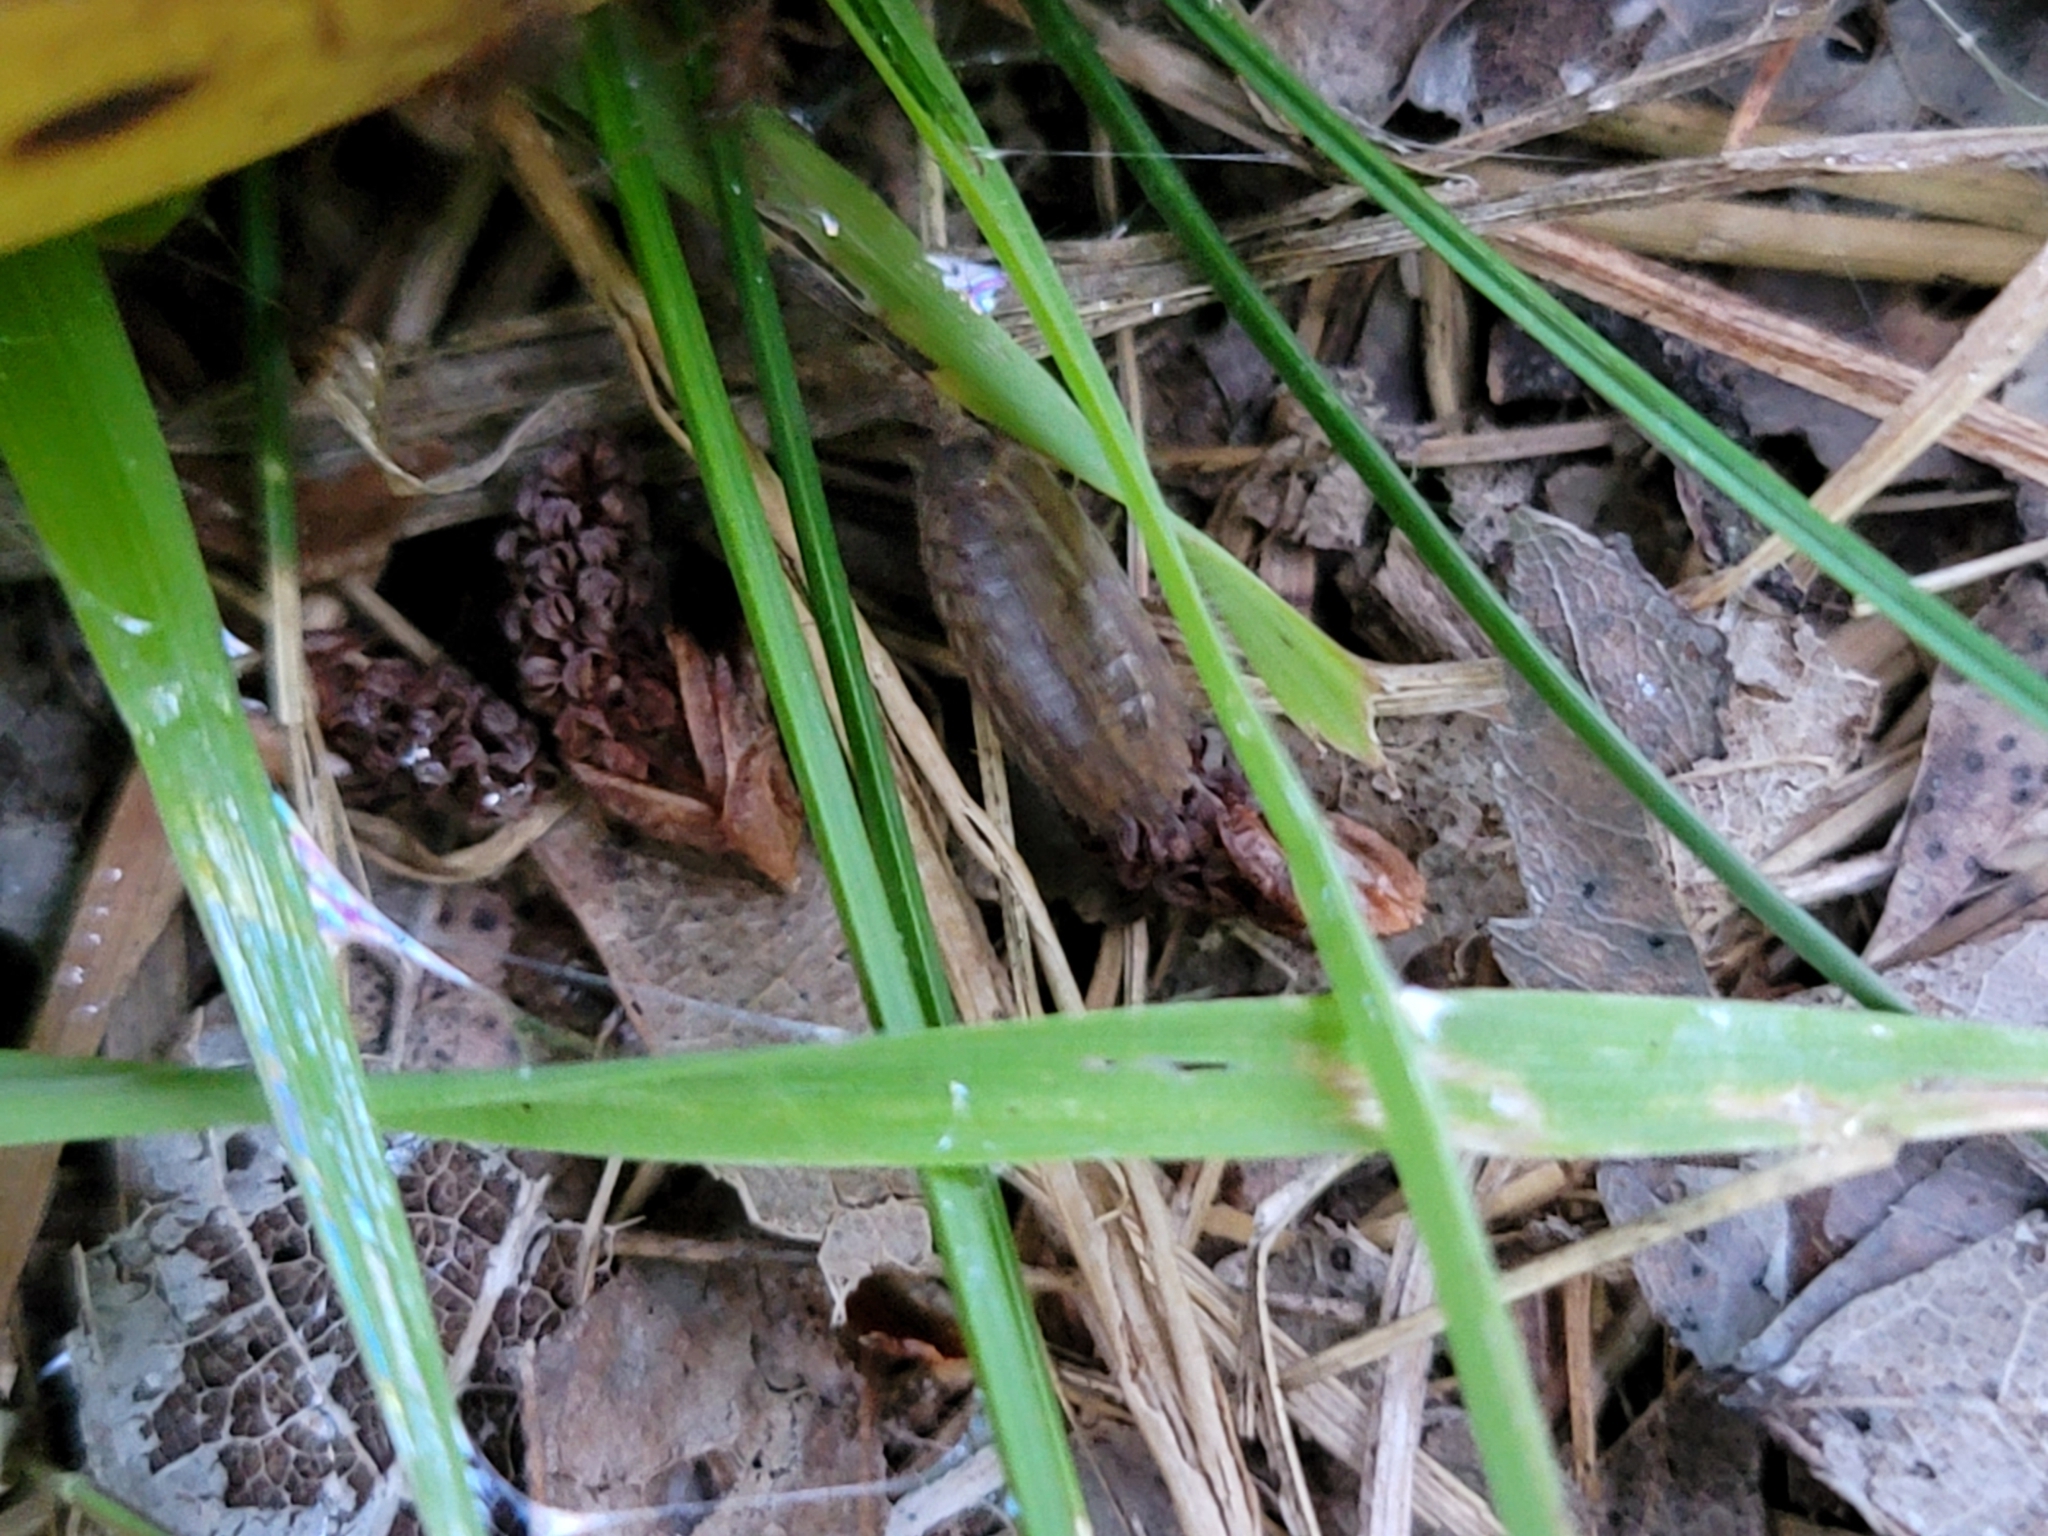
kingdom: Animalia
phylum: Arthropoda
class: Malacostraca
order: Isopoda
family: Trachelipodidae
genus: Trachelipus
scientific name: Trachelipus rathkii
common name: Isopod
